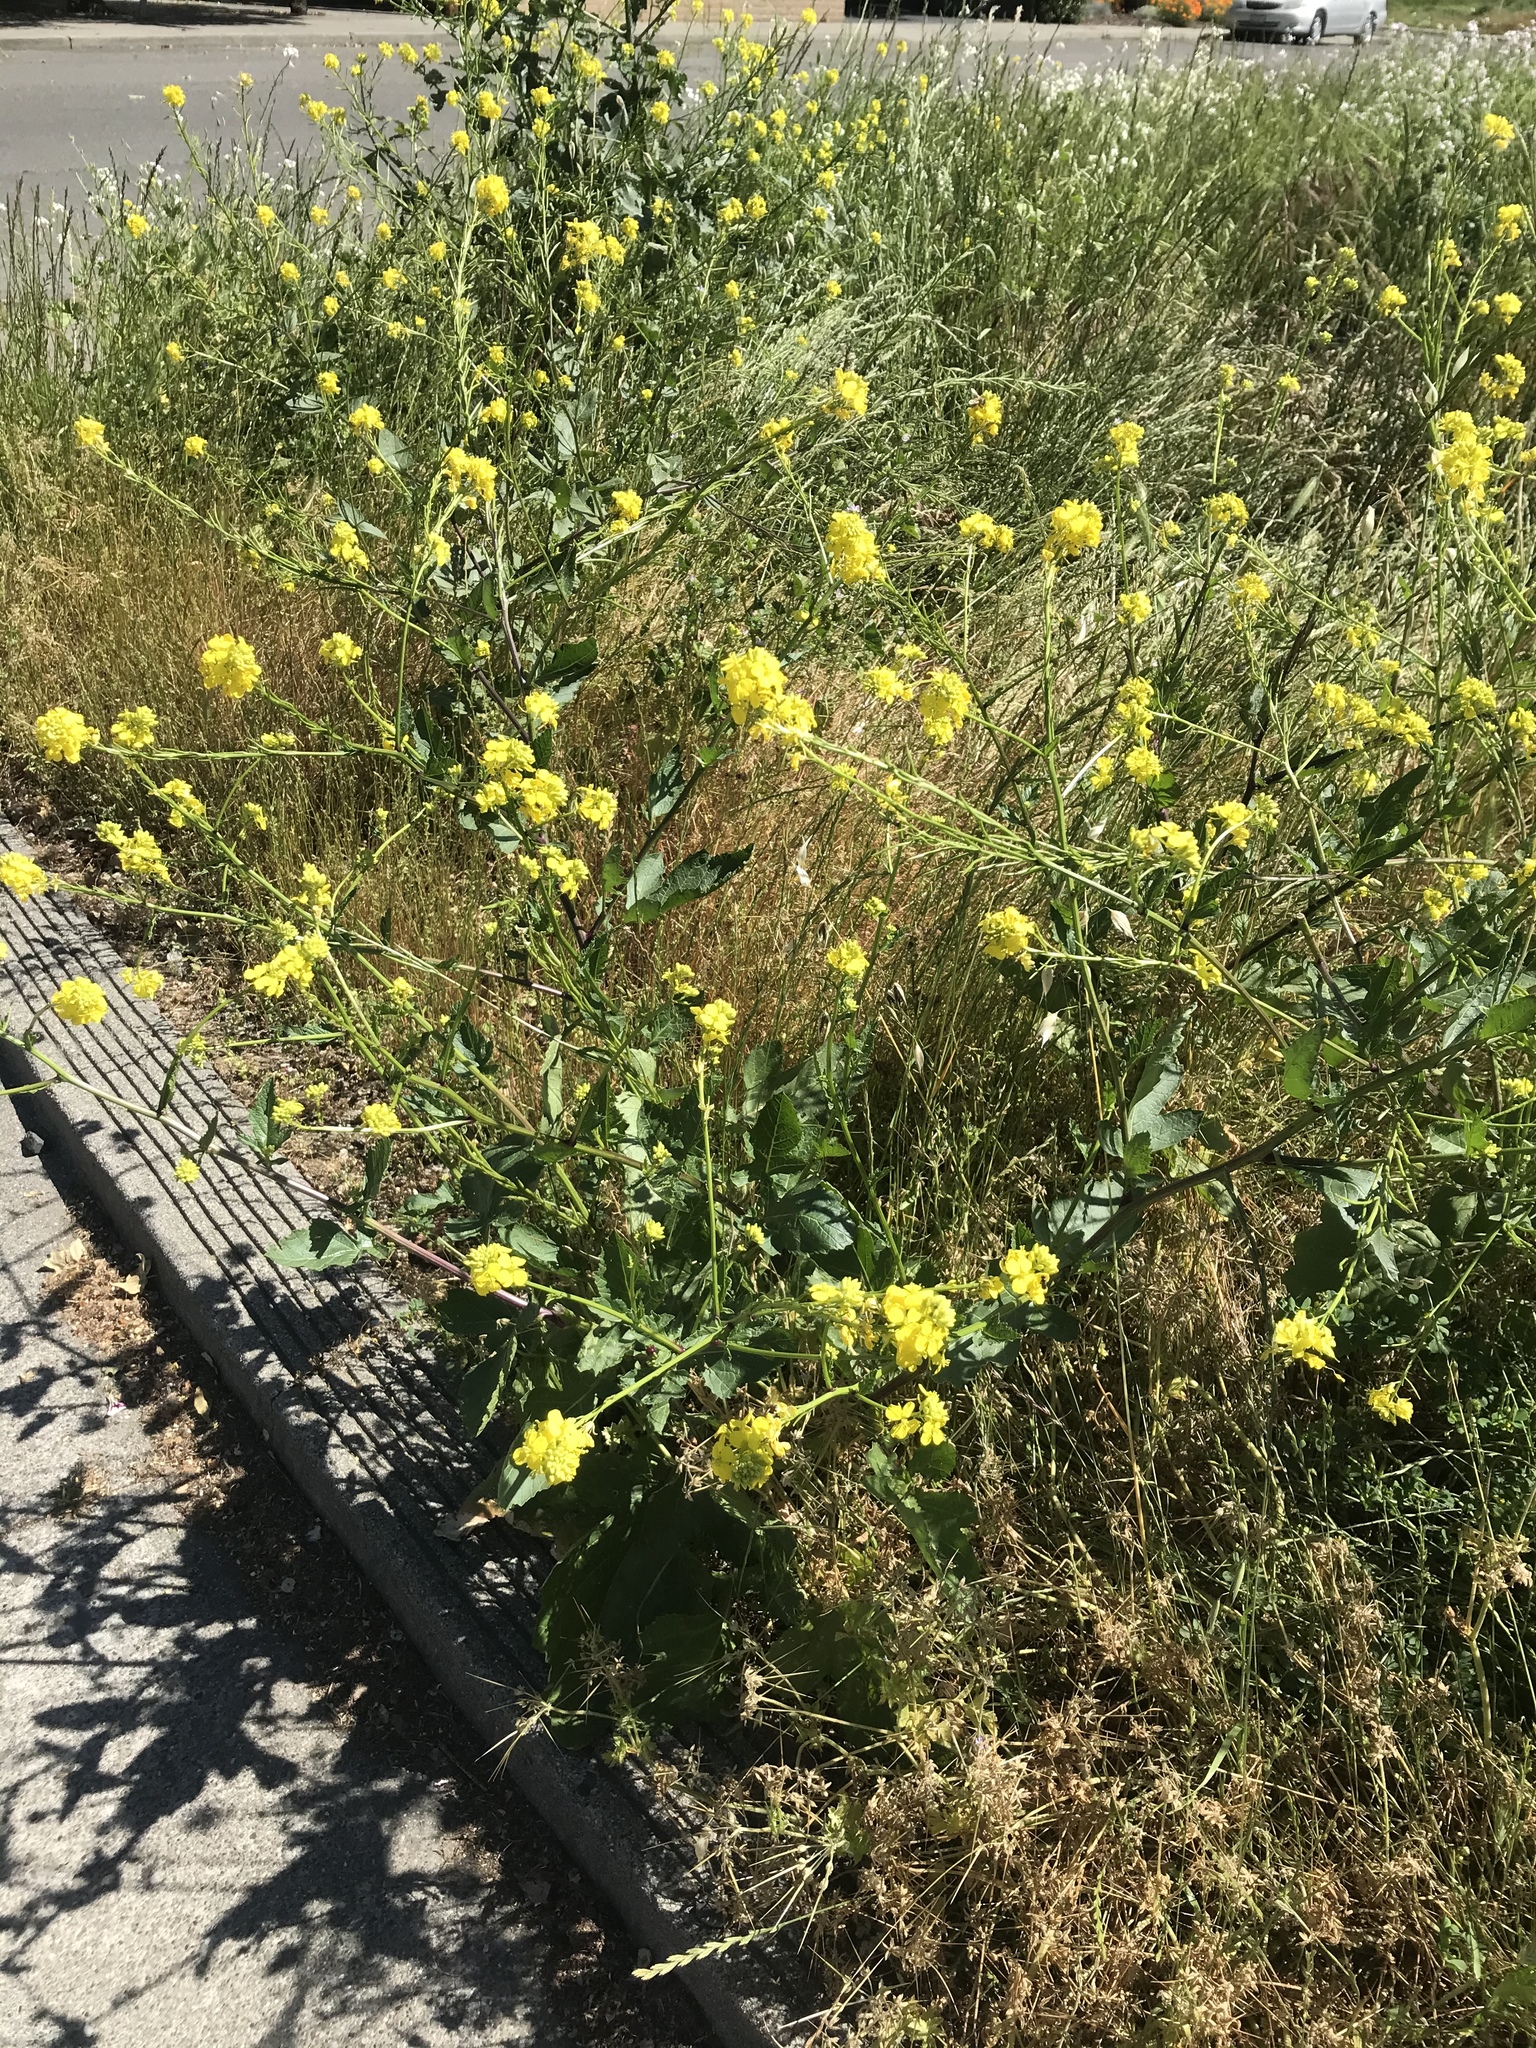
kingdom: Plantae
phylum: Tracheophyta
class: Magnoliopsida
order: Brassicales
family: Brassicaceae
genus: Sinapis
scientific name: Sinapis arvensis
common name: Charlock
